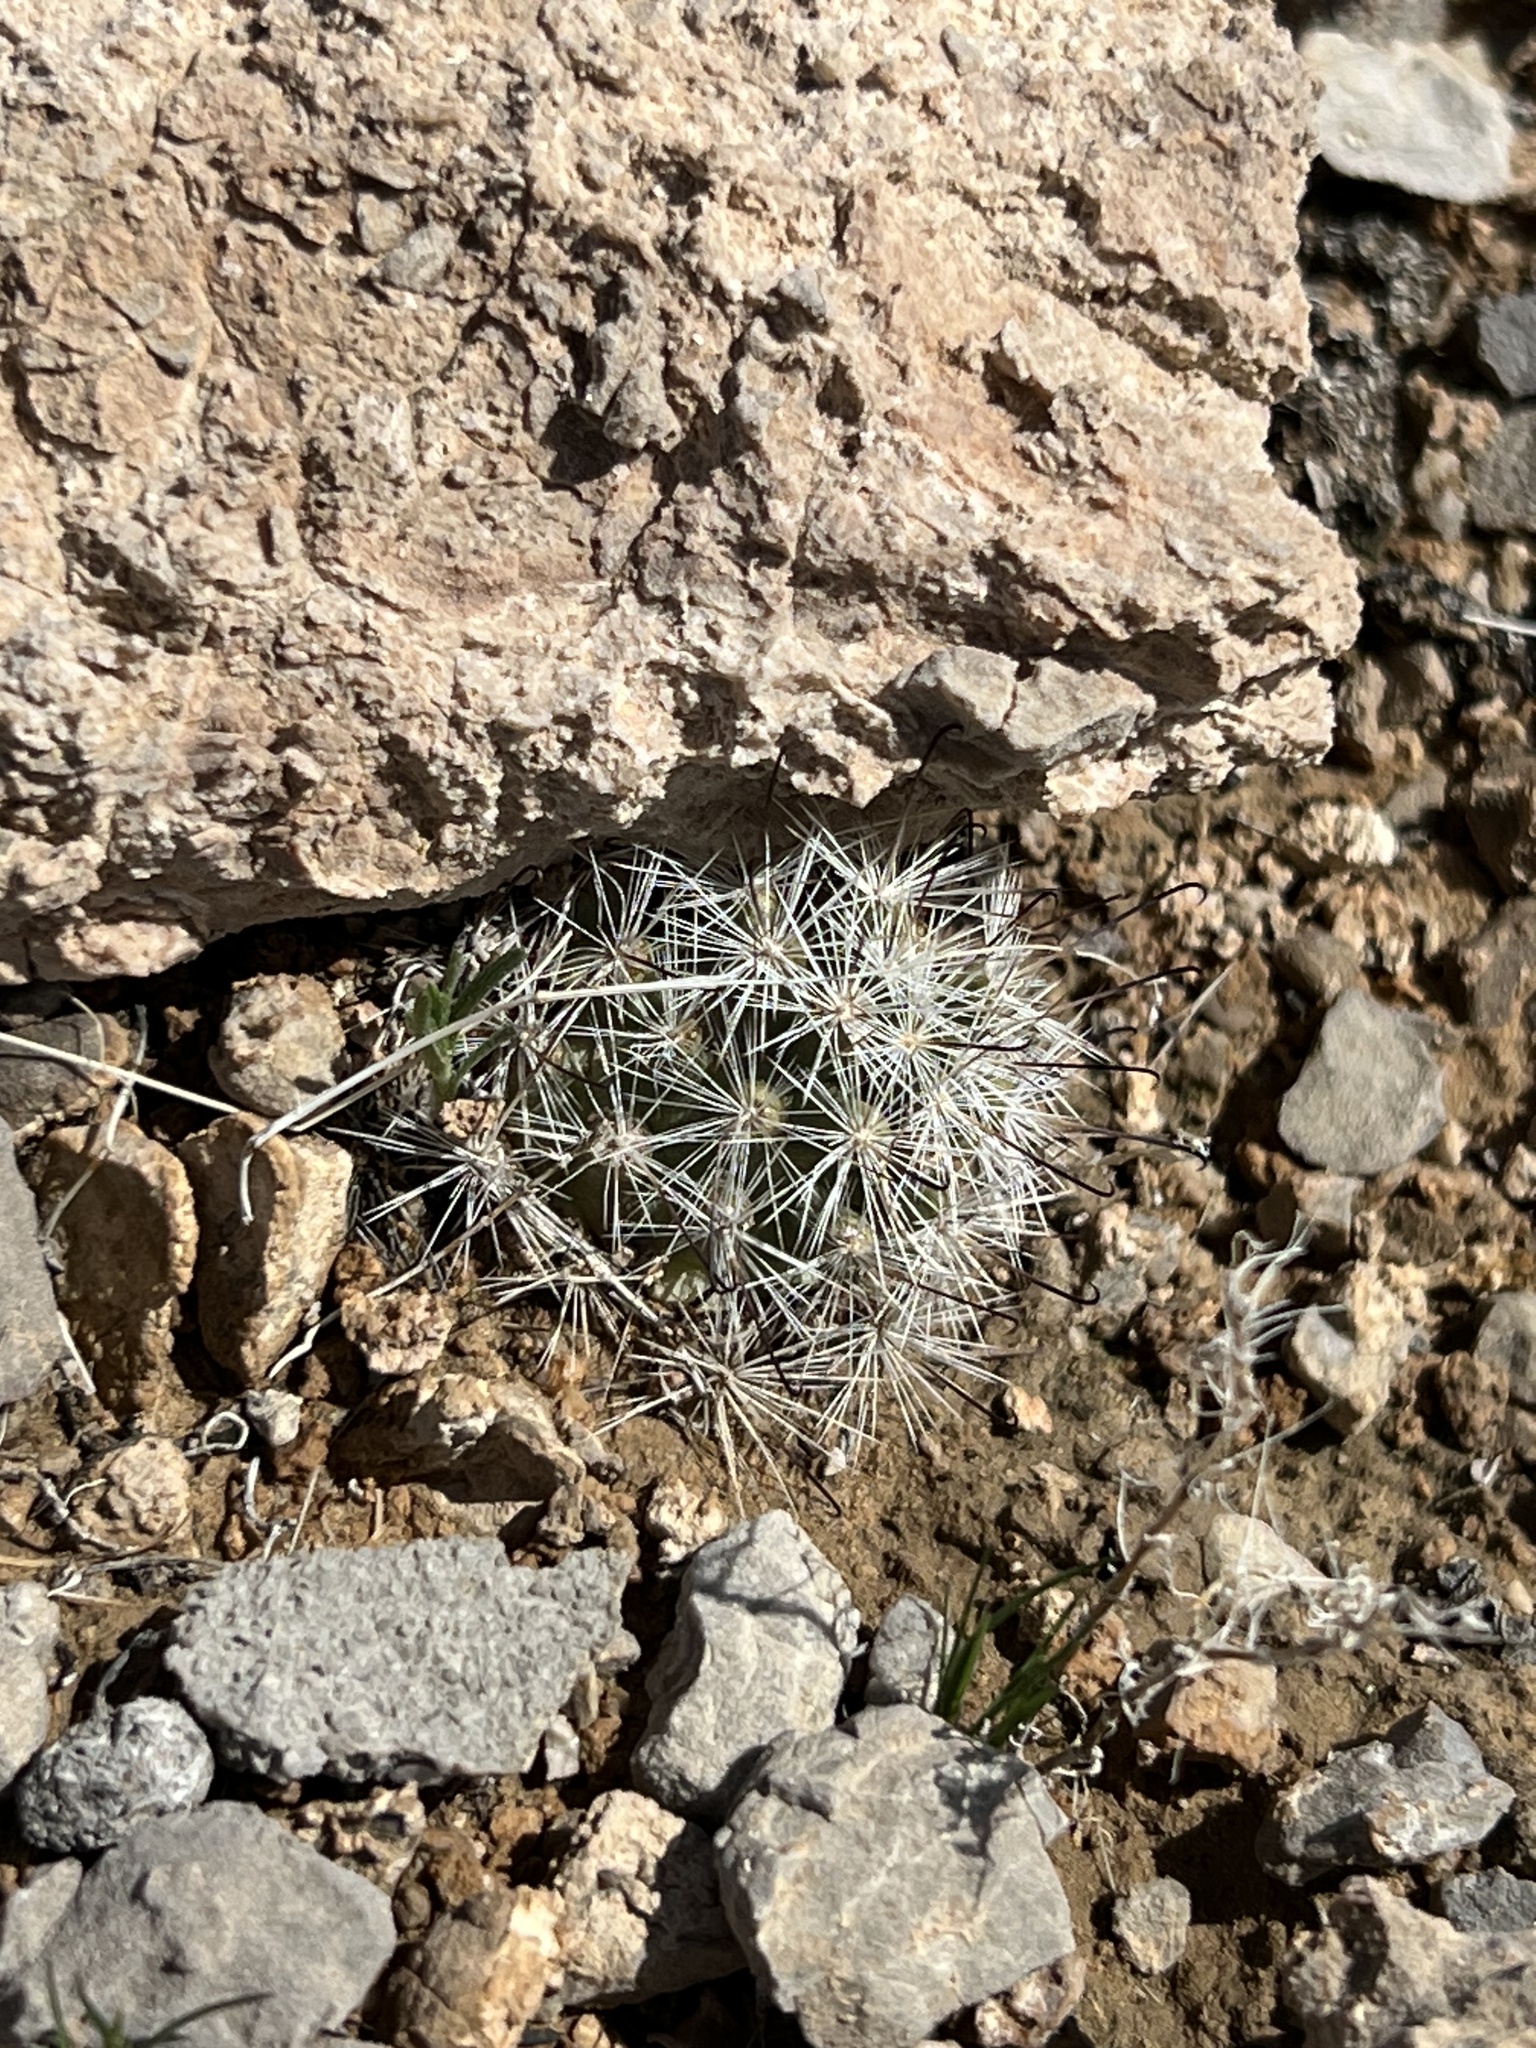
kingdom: Plantae
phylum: Tracheophyta
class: Magnoliopsida
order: Caryophyllales
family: Cactaceae
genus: Cochemiea
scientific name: Cochemiea tetrancistra
